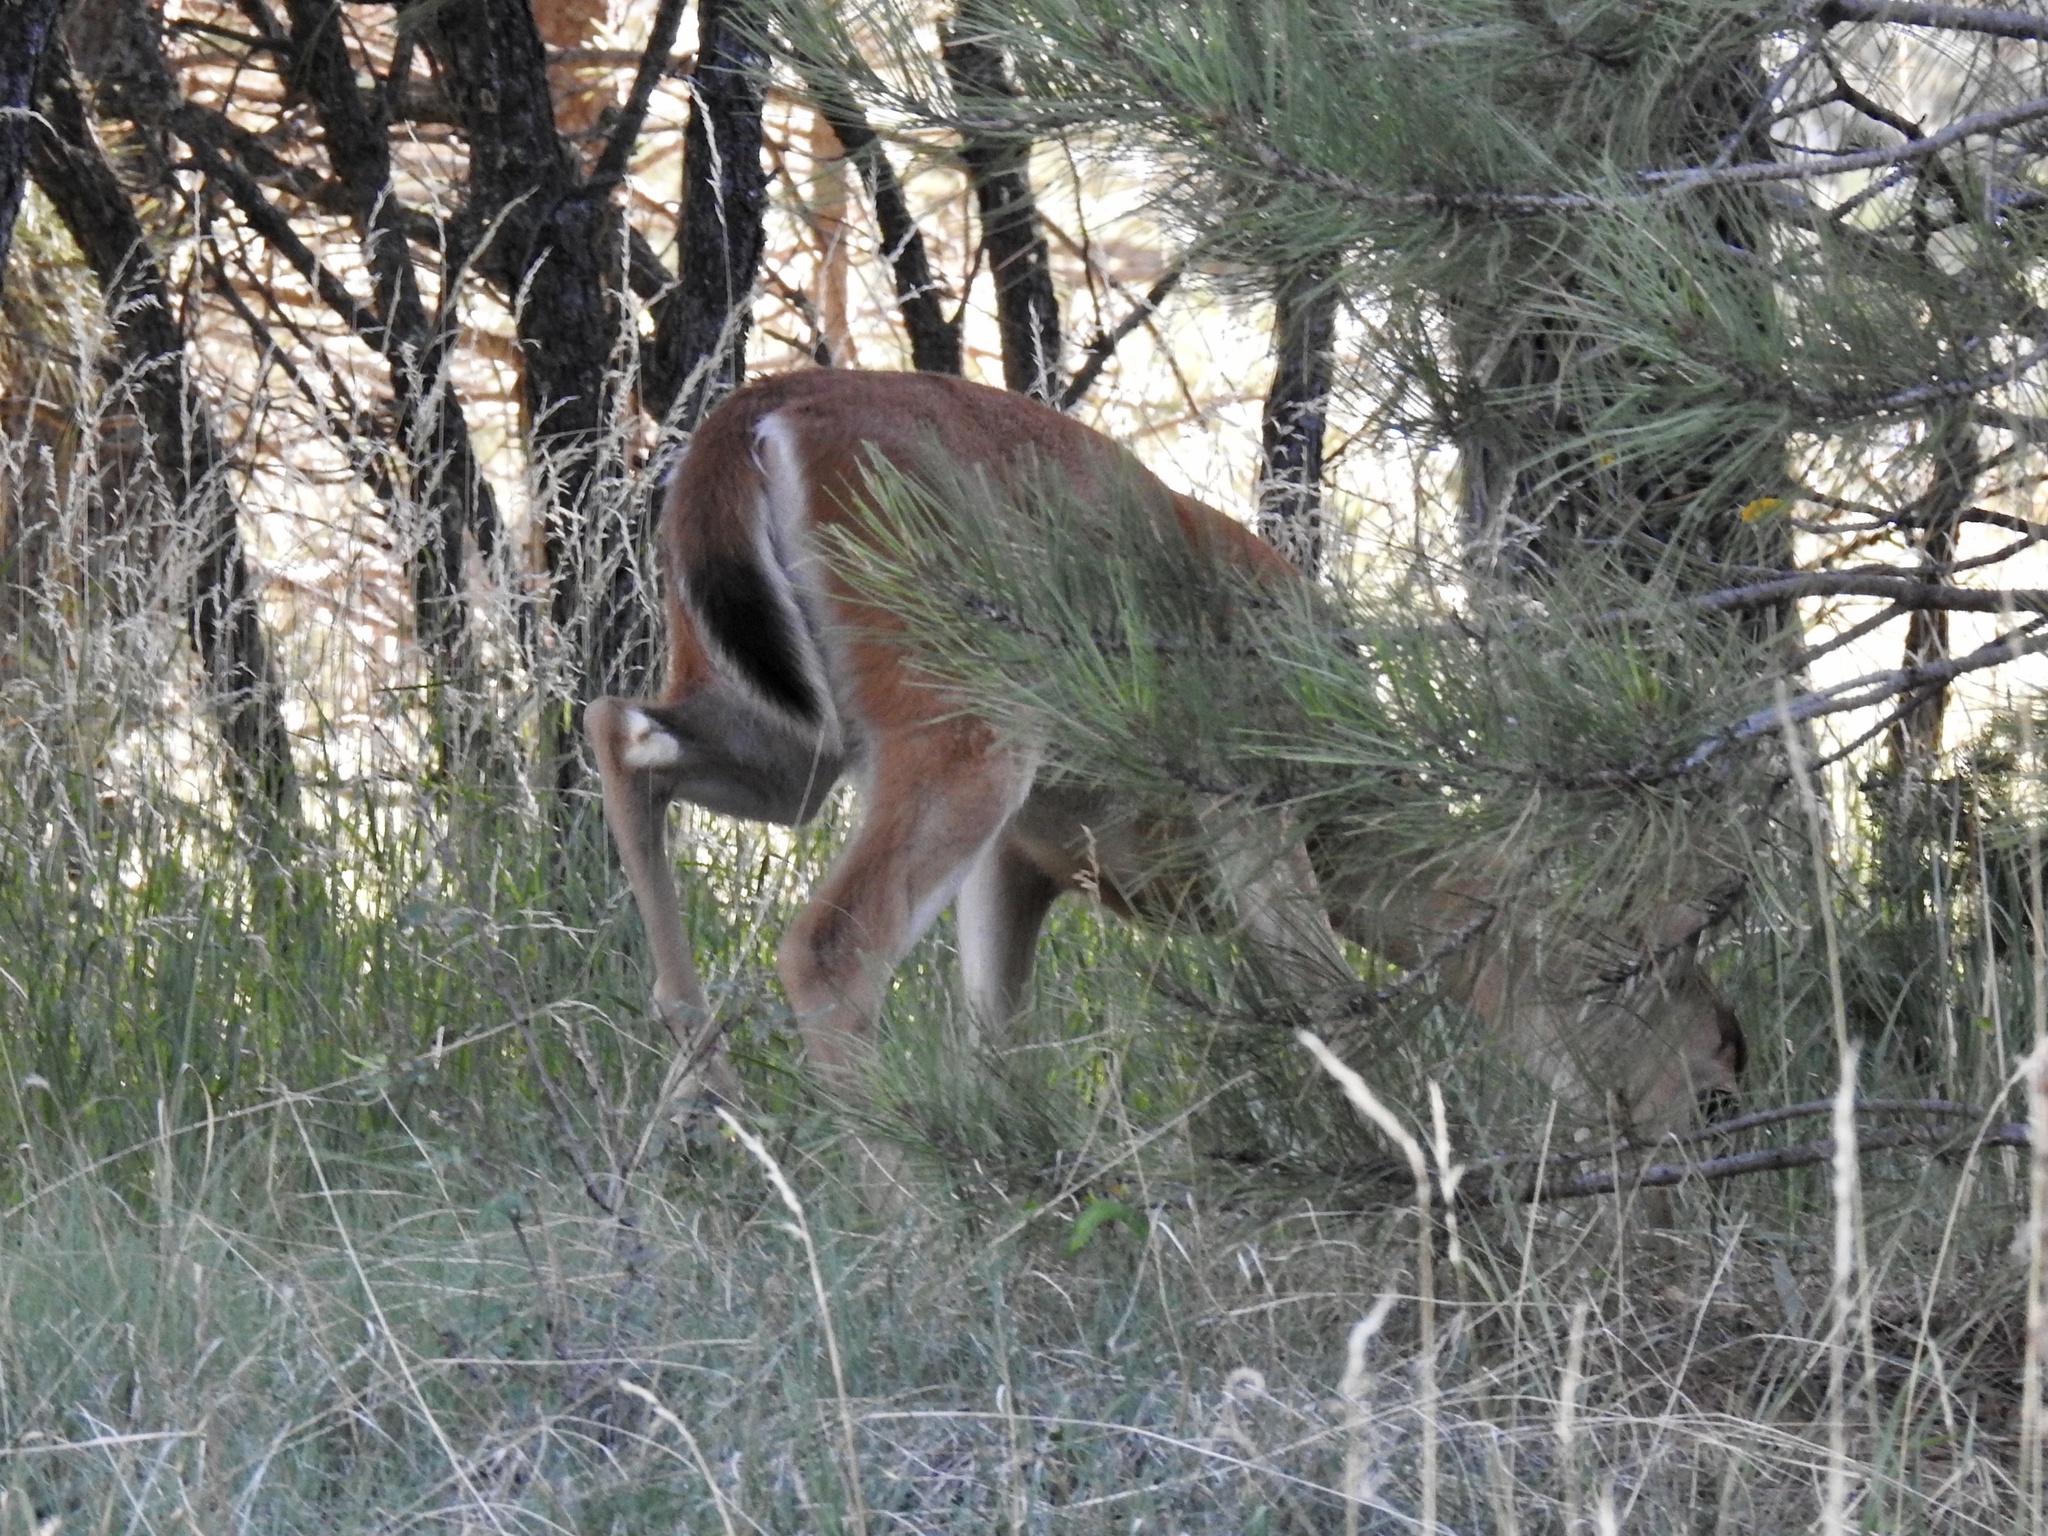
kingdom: Animalia
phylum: Chordata
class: Mammalia
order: Artiodactyla
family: Cervidae
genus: Odocoileus
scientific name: Odocoileus virginianus
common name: White-tailed deer
